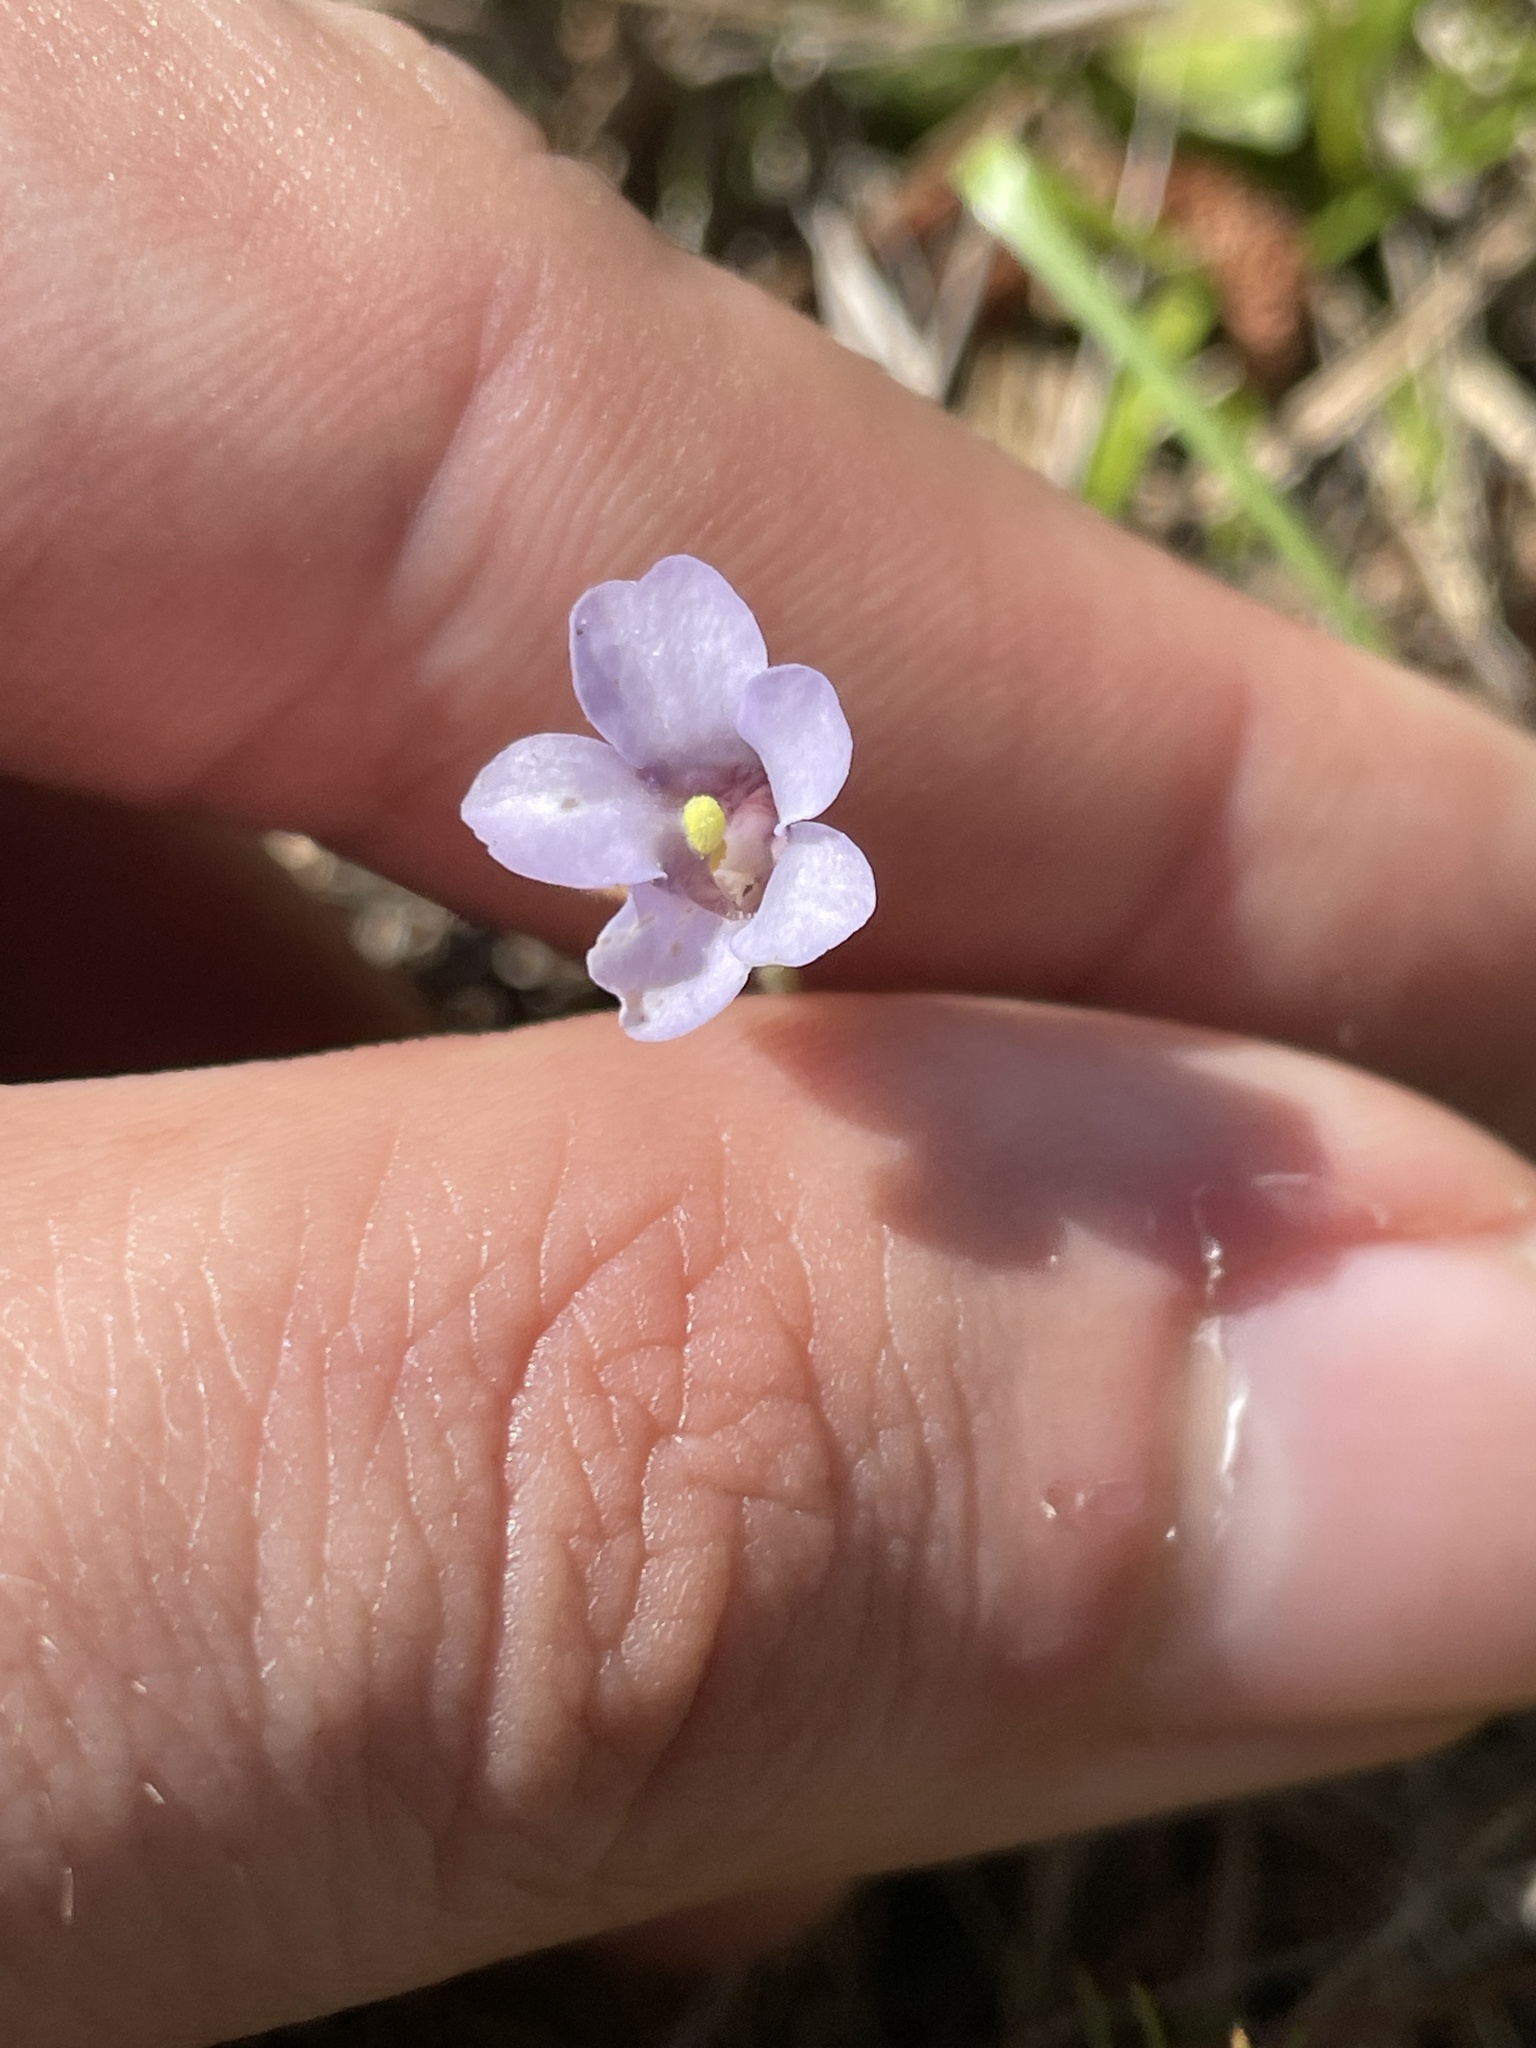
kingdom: Plantae
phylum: Tracheophyta
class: Magnoliopsida
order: Lamiales
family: Lentibulariaceae
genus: Pinguicula
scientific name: Pinguicula pumila
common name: Small butterwort
